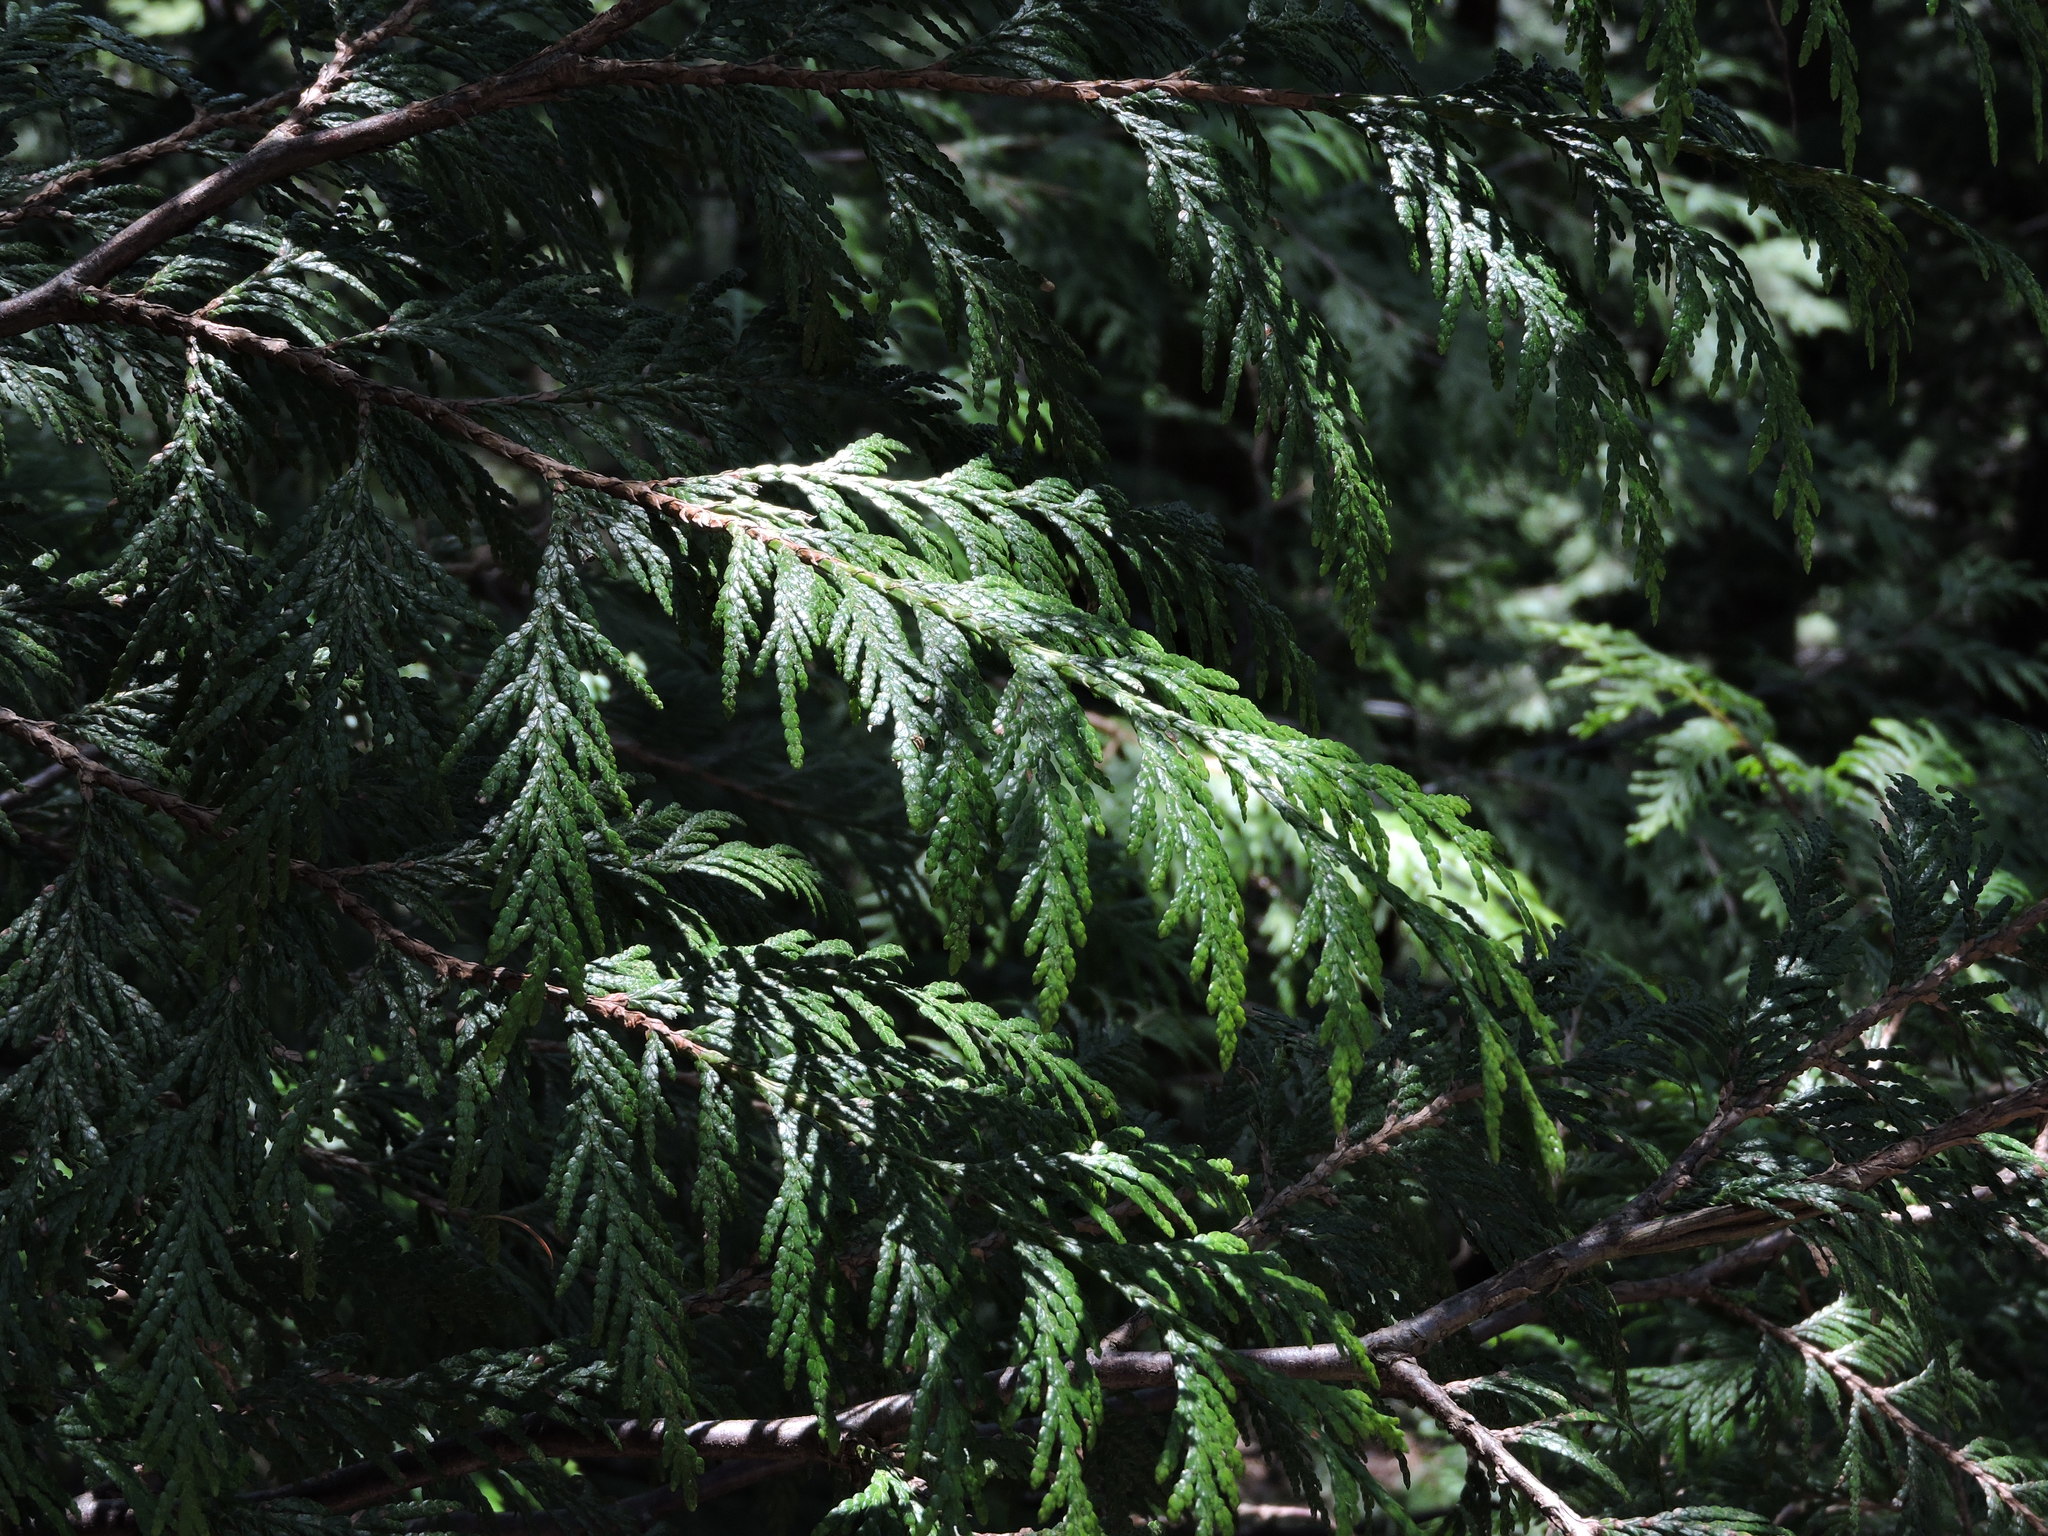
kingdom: Plantae
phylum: Tracheophyta
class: Pinopsida
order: Pinales
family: Cupressaceae
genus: Thuja
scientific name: Thuja plicata
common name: Western red-cedar
